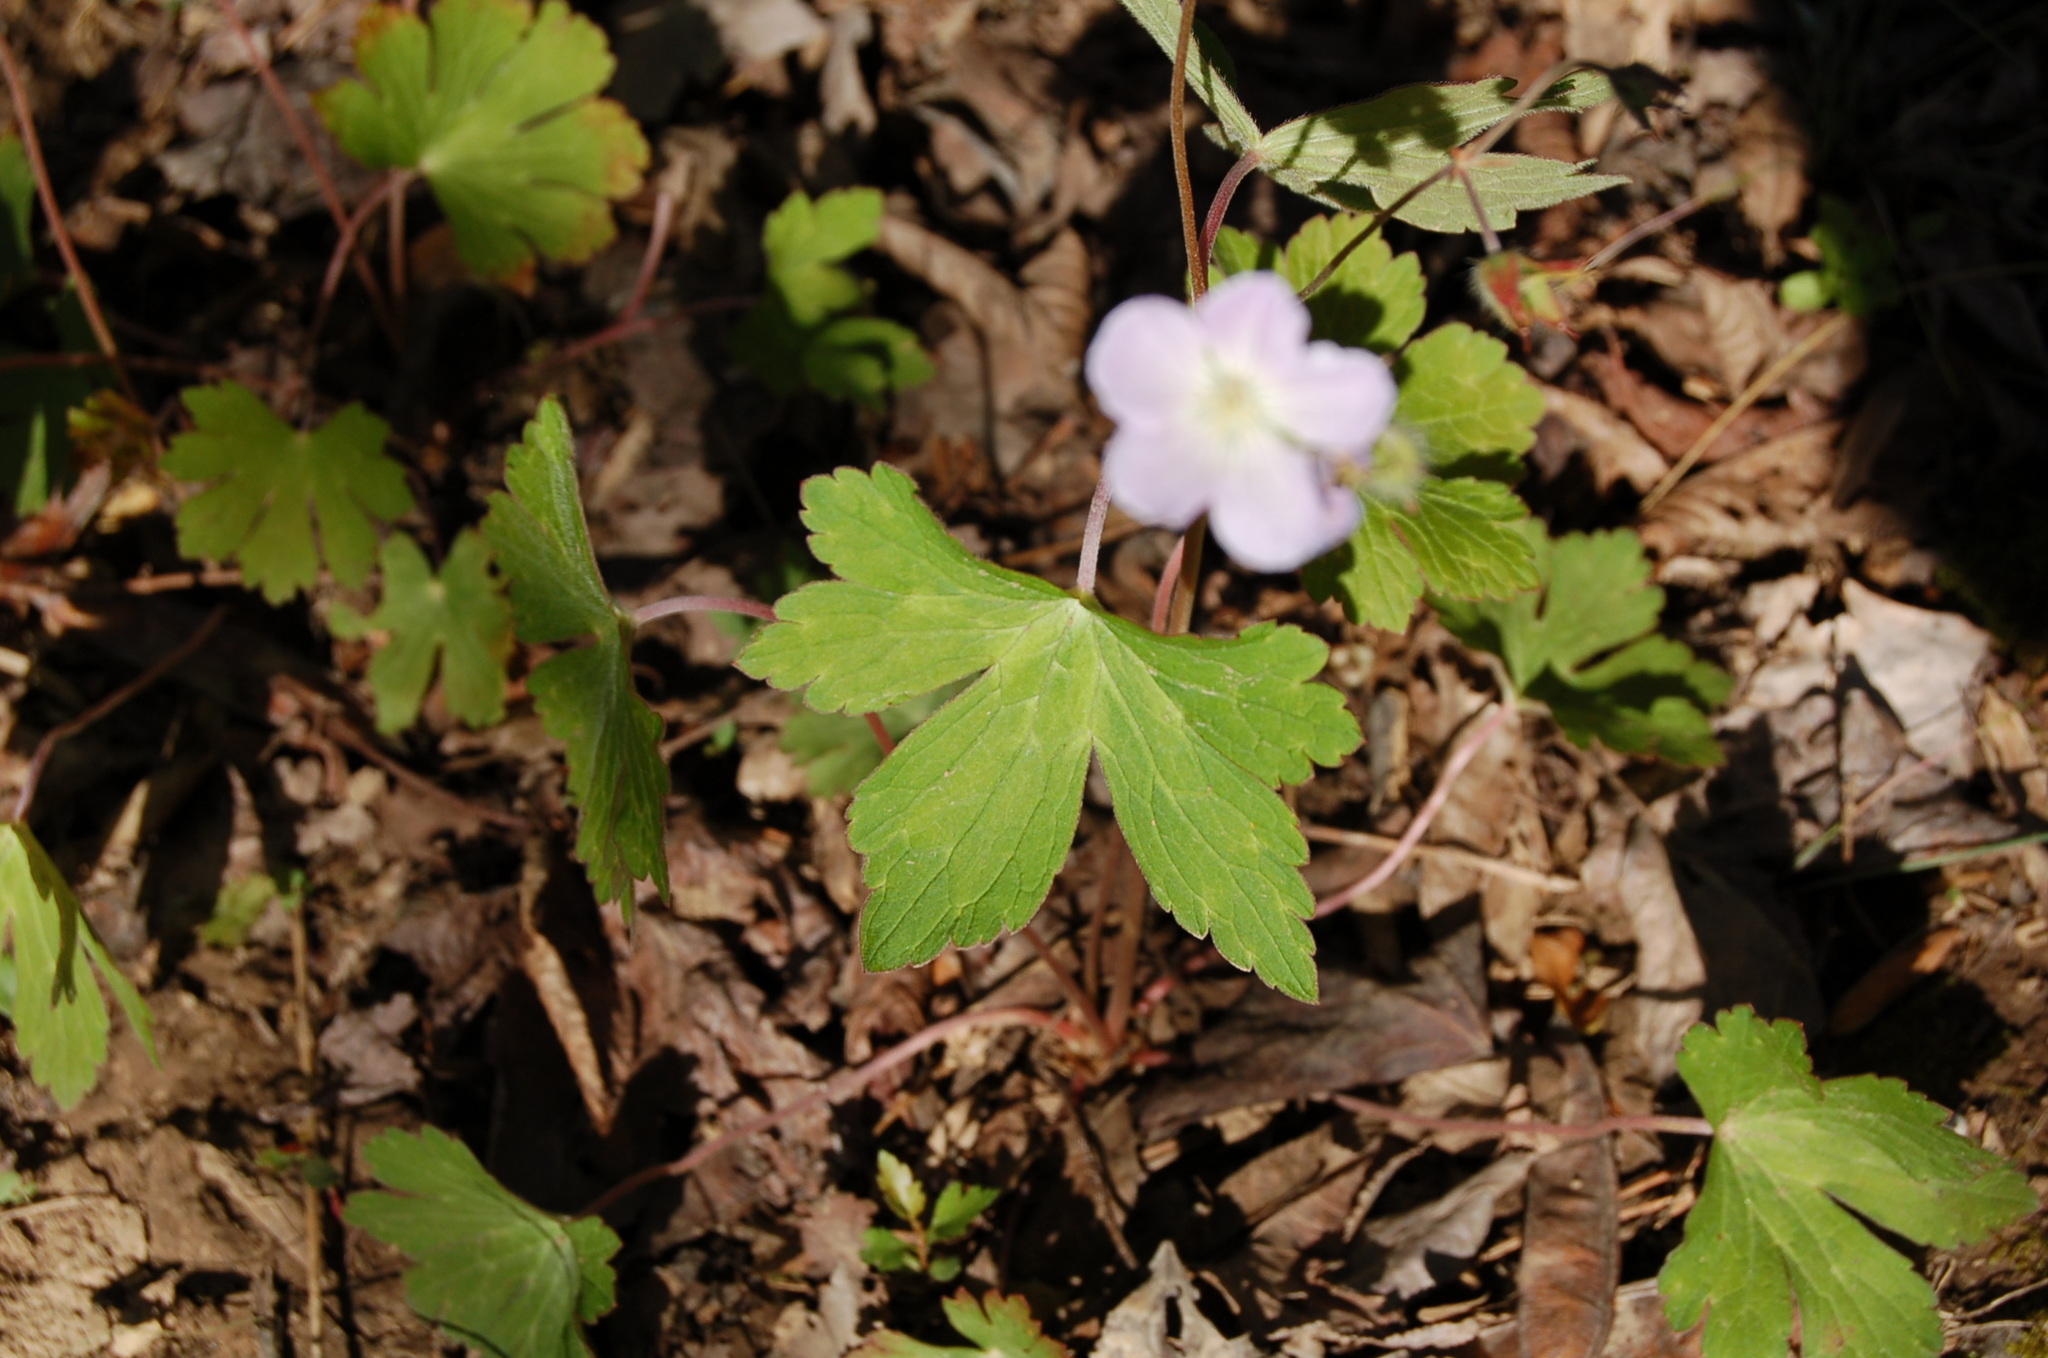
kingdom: Plantae
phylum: Tracheophyta
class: Magnoliopsida
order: Geraniales
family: Geraniaceae
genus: Geranium
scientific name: Geranium maculatum
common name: Spotted geranium
